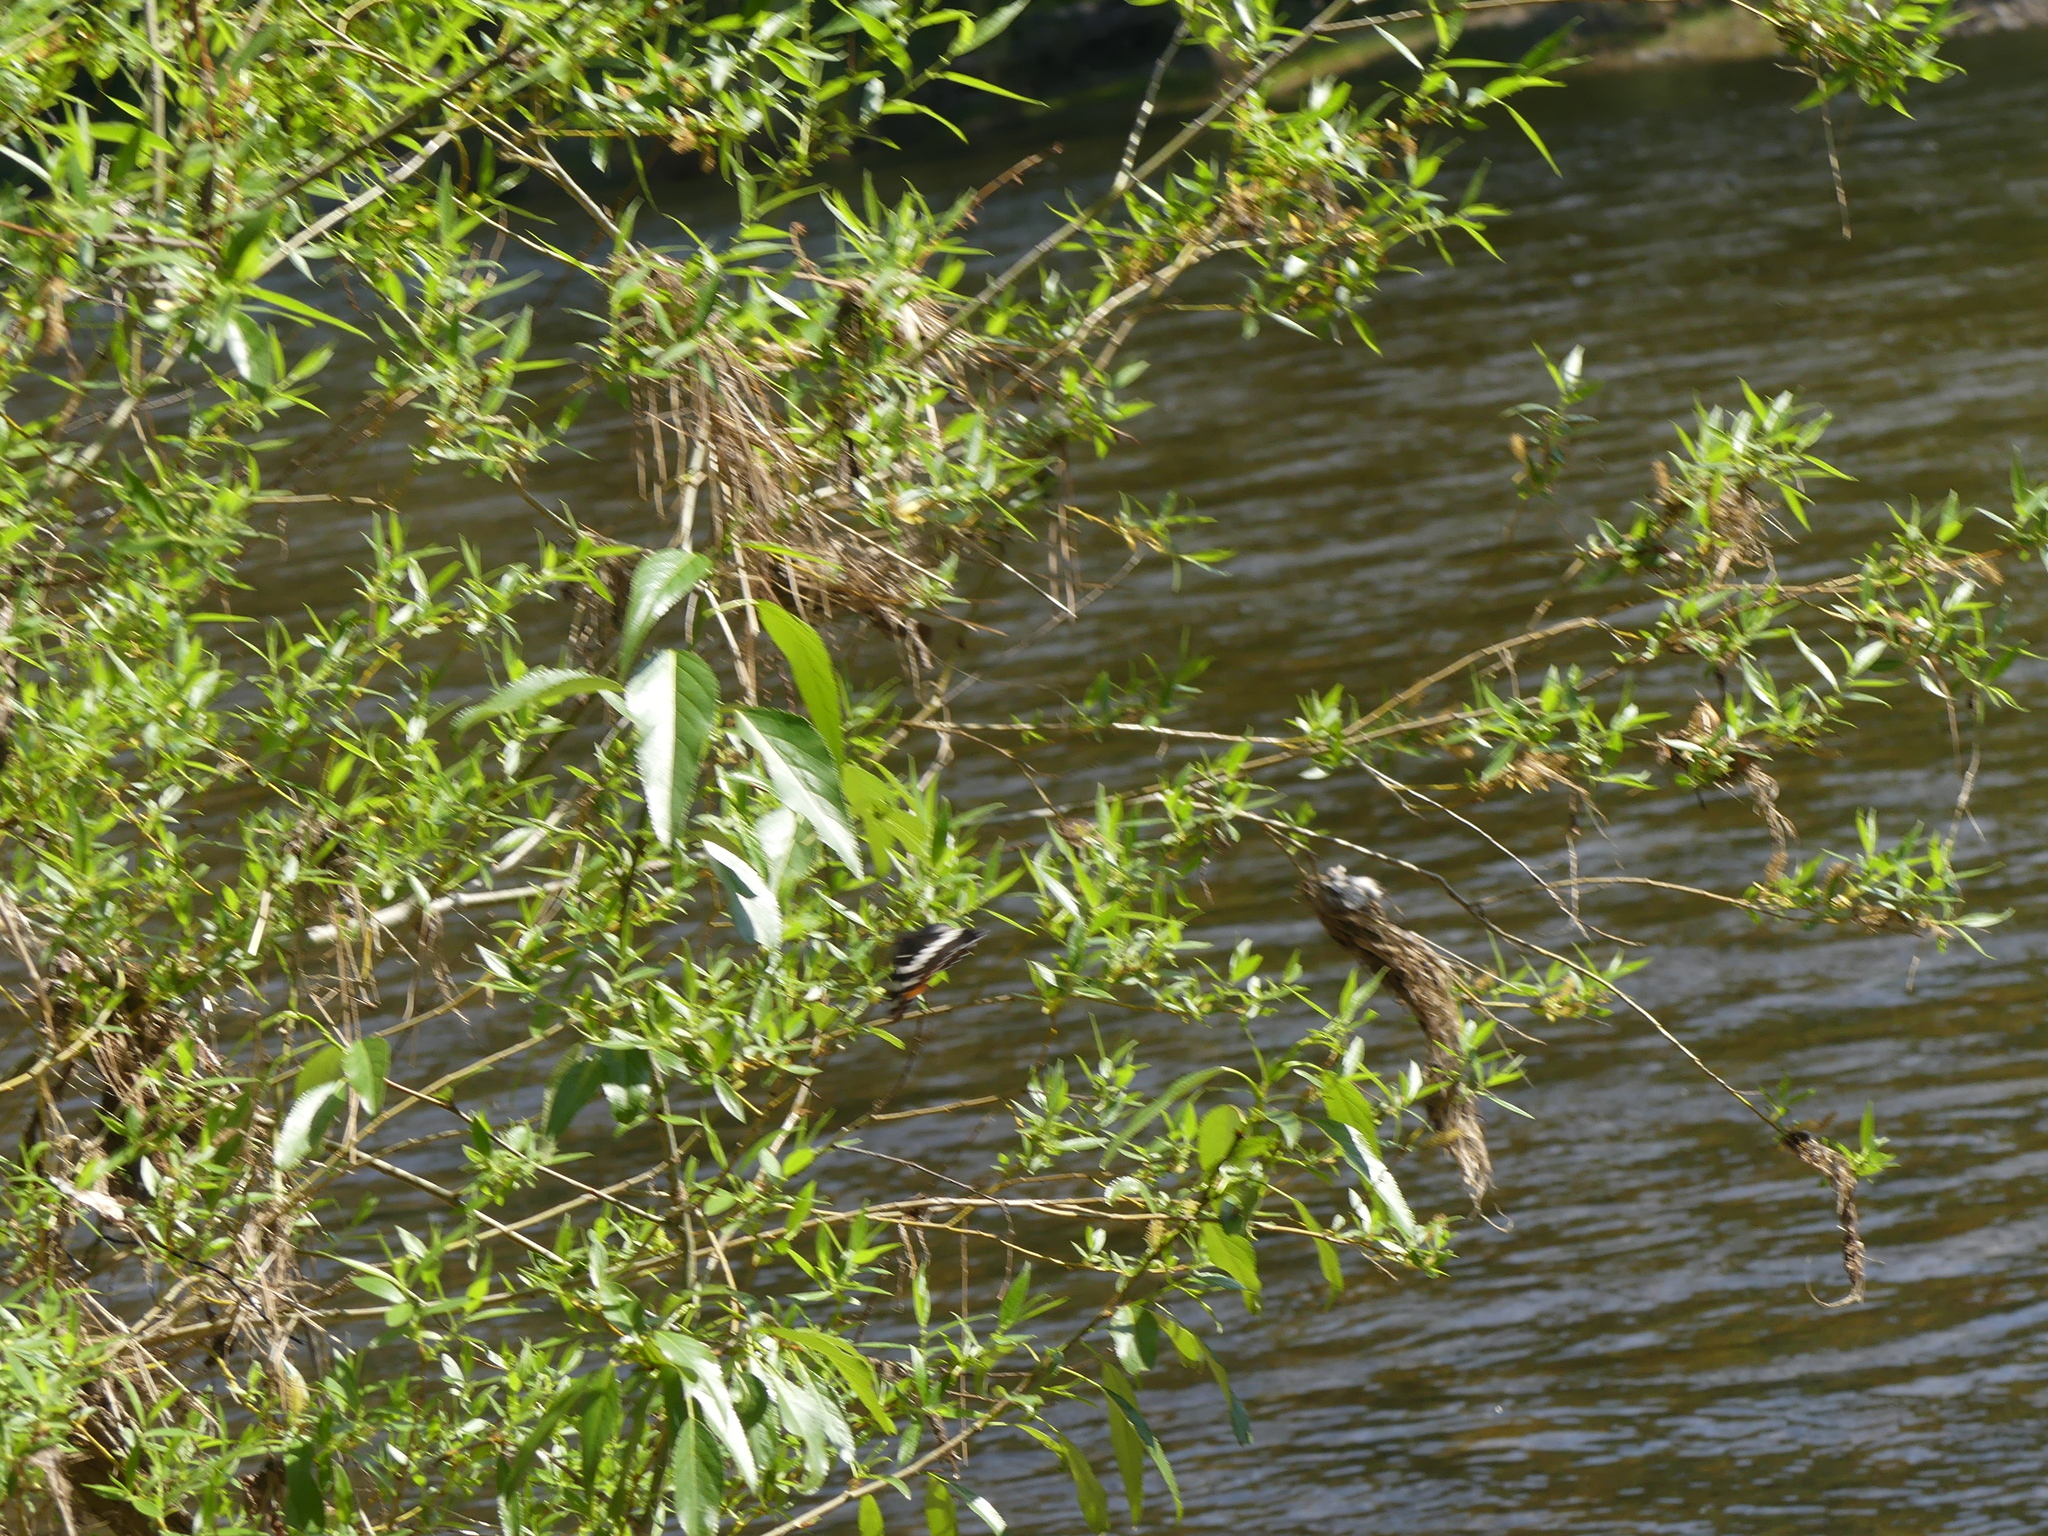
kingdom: Animalia
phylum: Arthropoda
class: Insecta
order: Lepidoptera
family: Nymphalidae
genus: Limenitis
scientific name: Limenitis lorquini
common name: Lorquin's admiral
